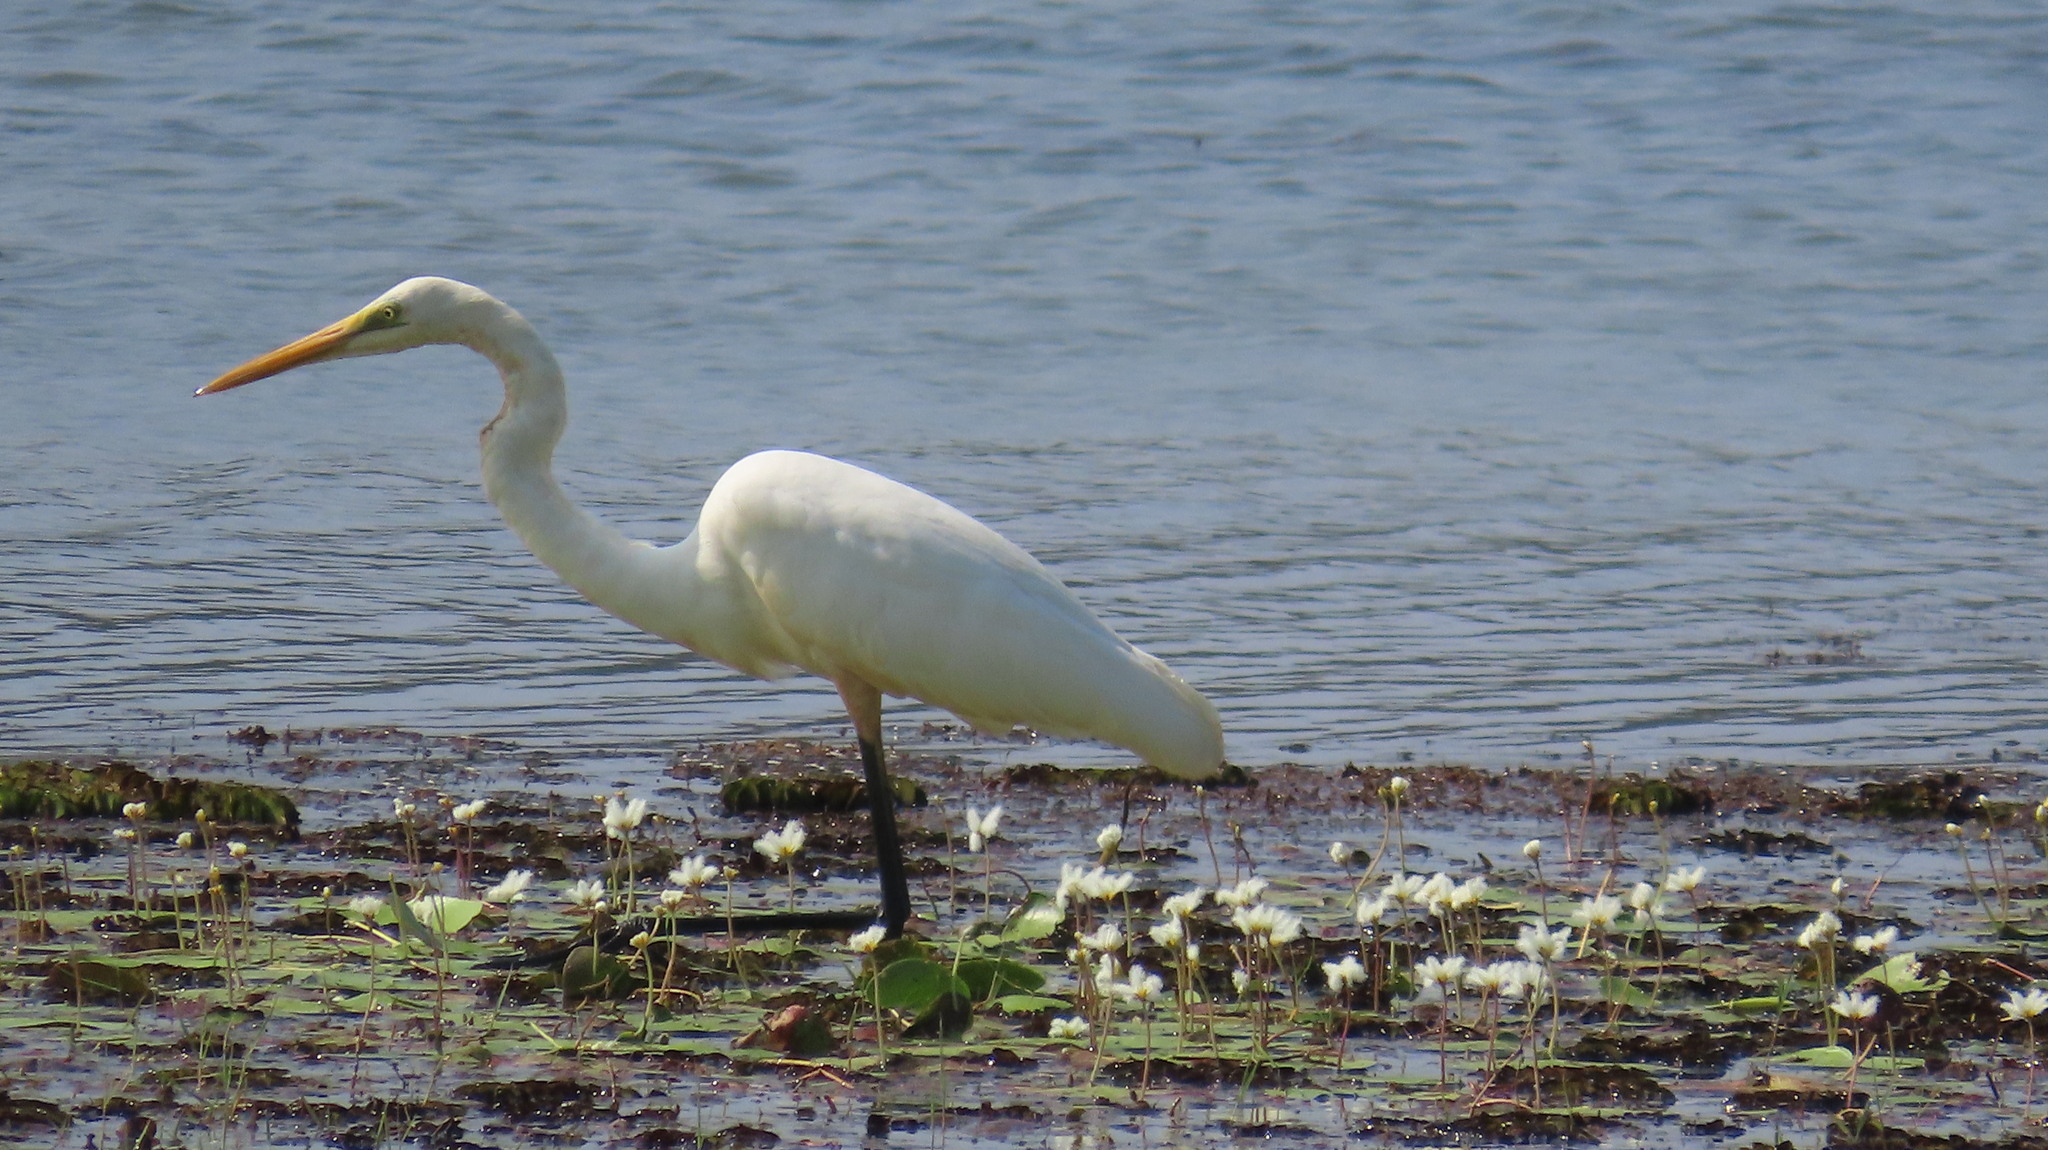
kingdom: Animalia
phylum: Chordata
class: Aves
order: Pelecaniformes
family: Ardeidae
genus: Ardea
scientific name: Ardea alba
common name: Great egret
